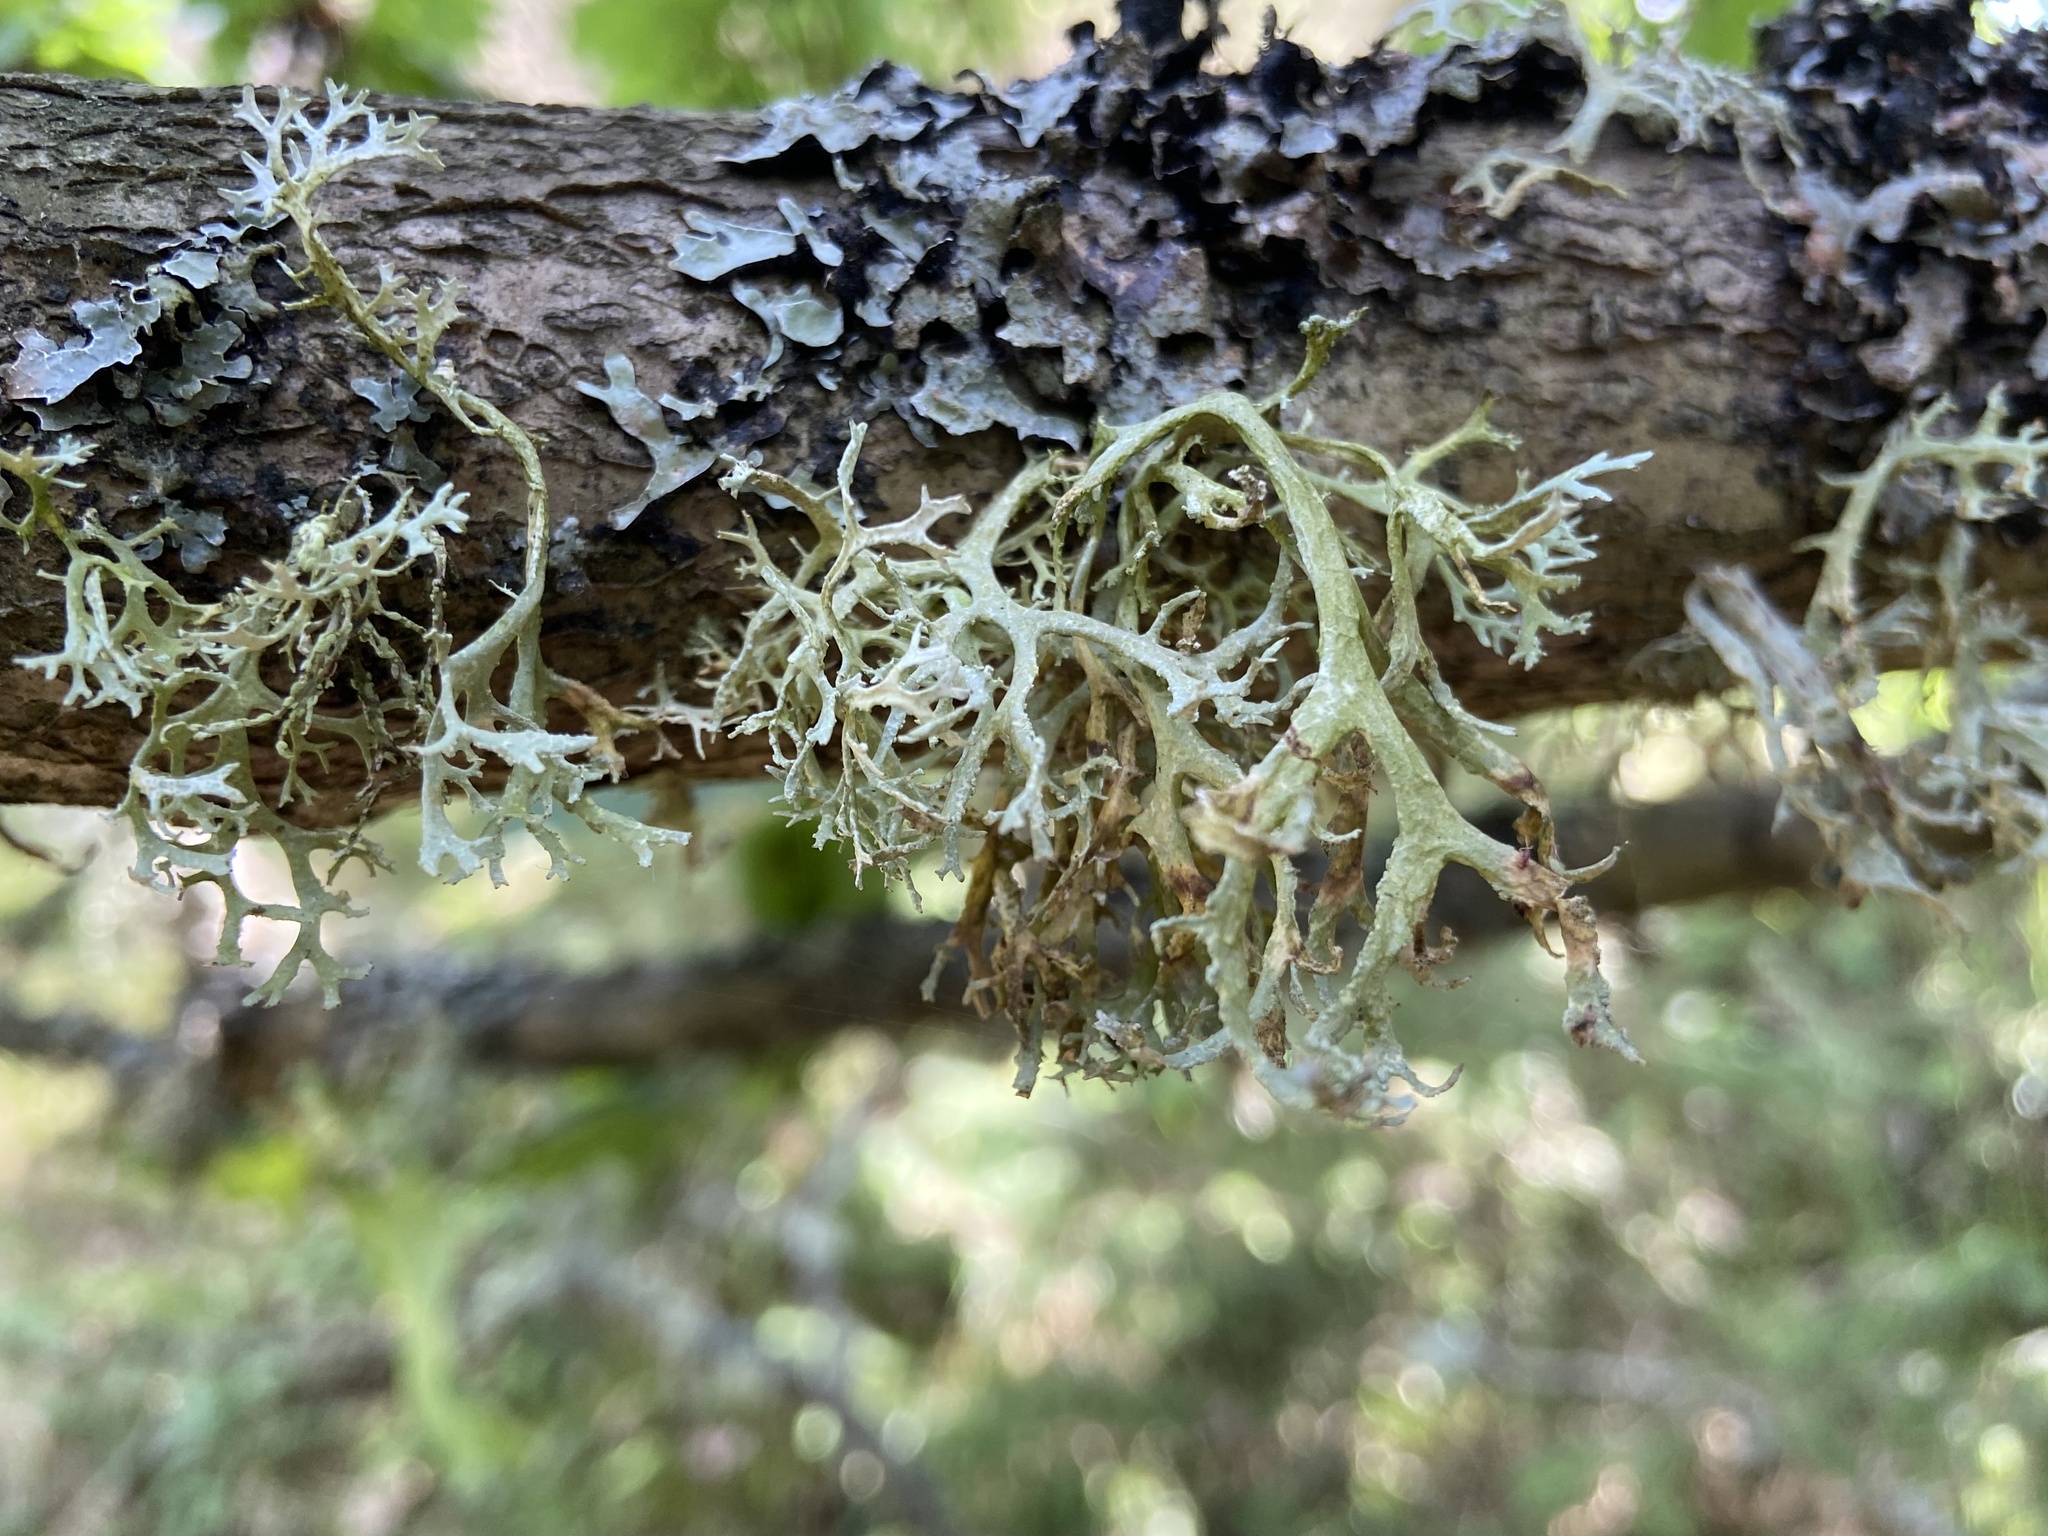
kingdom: Fungi
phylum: Ascomycota
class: Lecanoromycetes
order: Lecanorales
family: Parmeliaceae
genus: Evernia
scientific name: Evernia prunastri
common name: Oak moss
